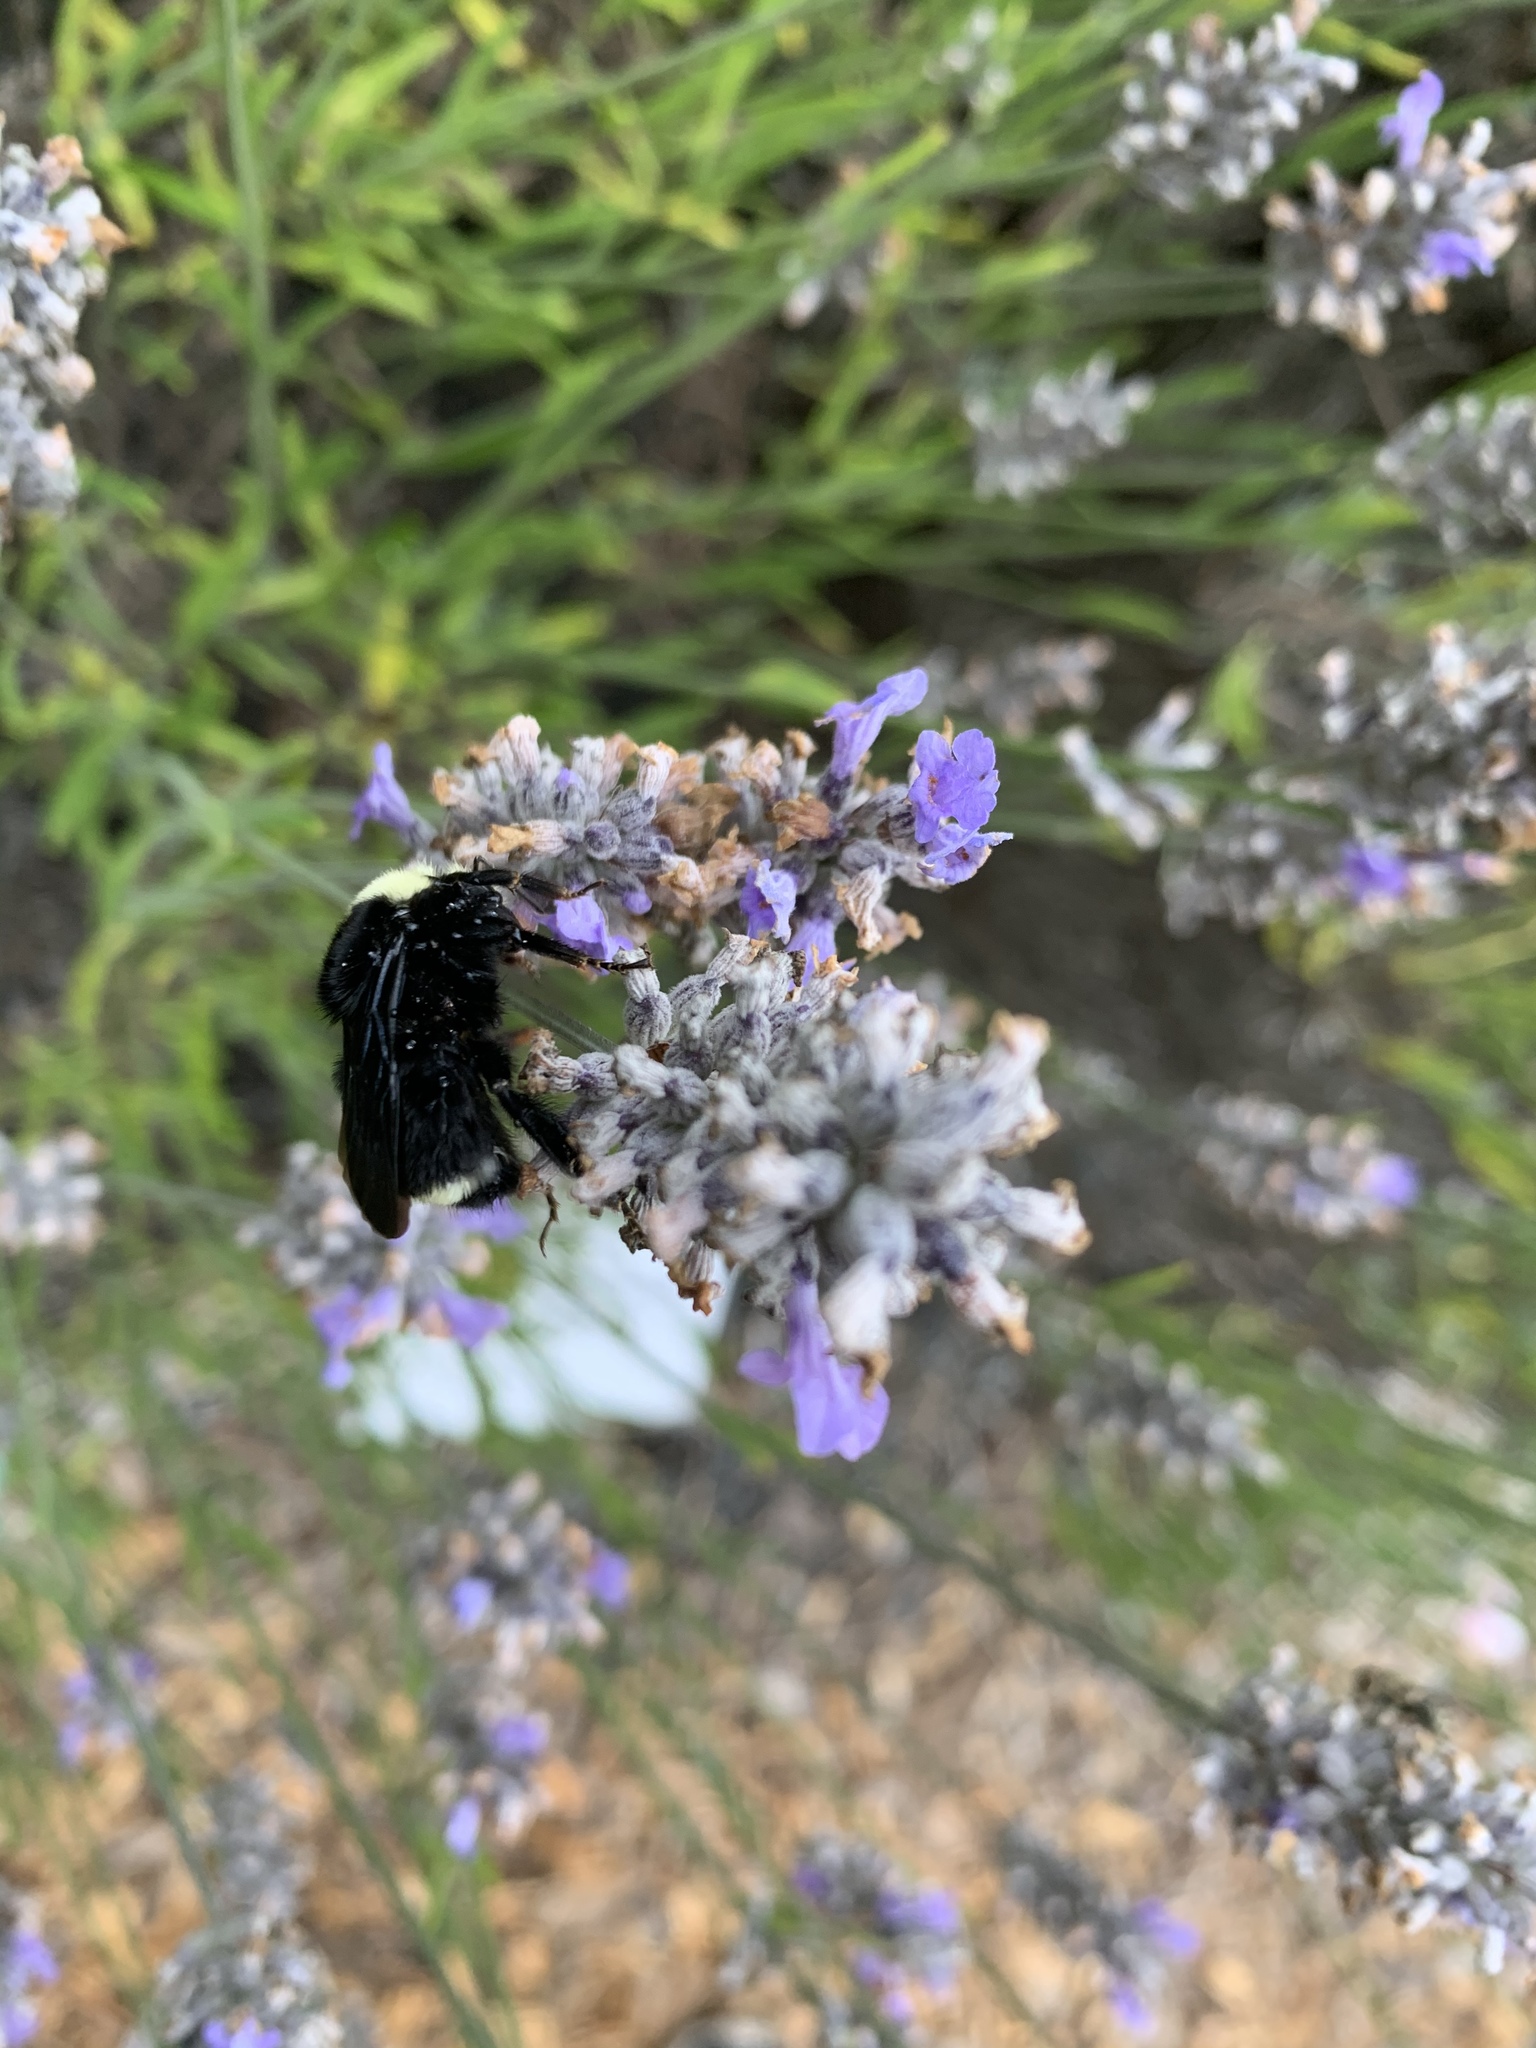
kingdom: Animalia
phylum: Arthropoda
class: Insecta
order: Hymenoptera
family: Apidae
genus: Bombus
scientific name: Bombus vosnesenskii
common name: Vosnesensky bumble bee
